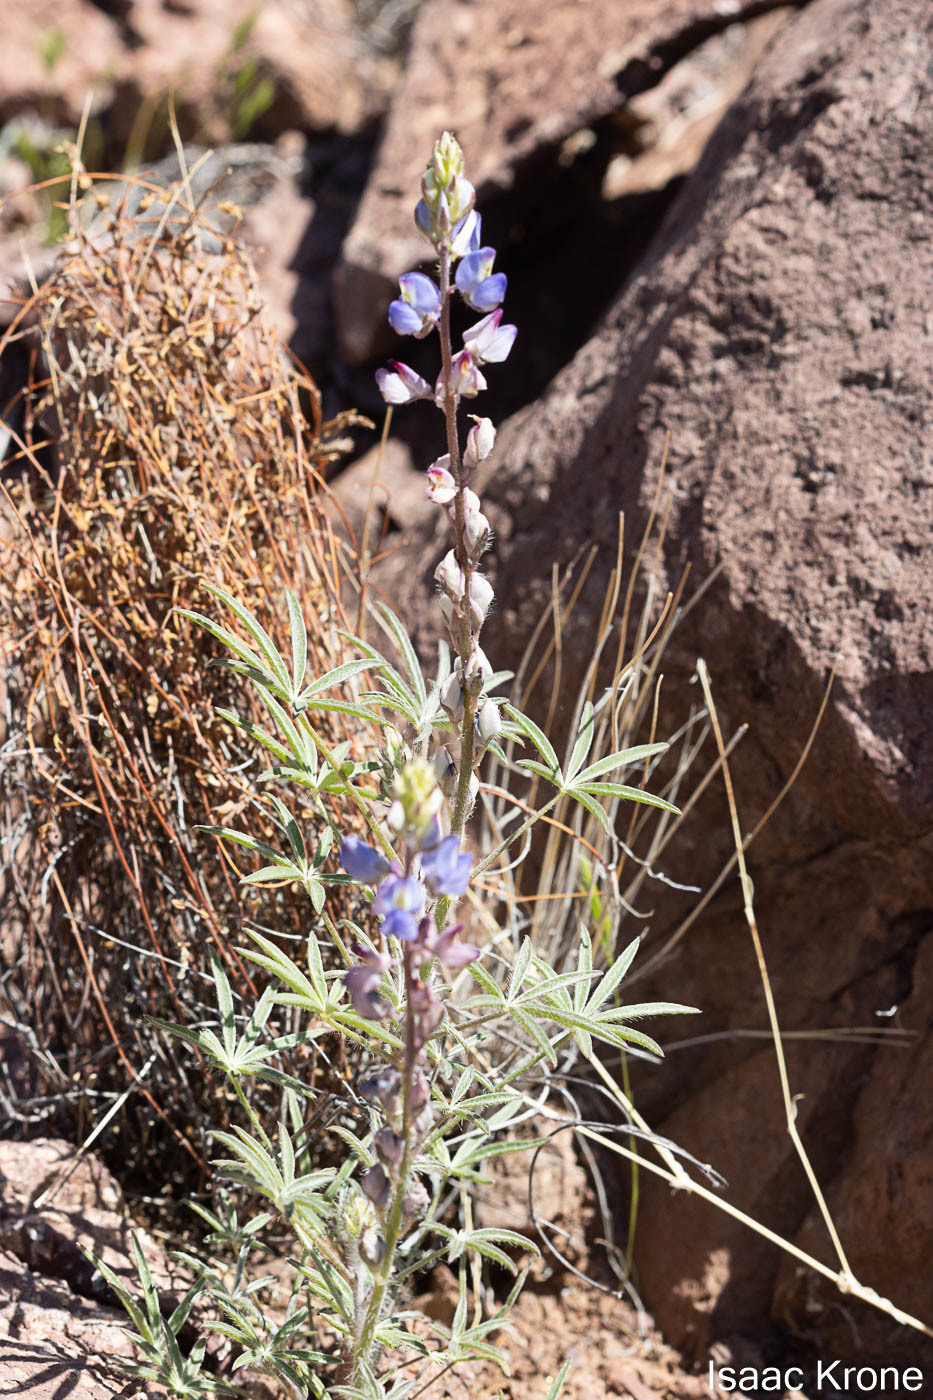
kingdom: Plantae
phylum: Tracheophyta
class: Magnoliopsida
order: Fabales
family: Fabaceae
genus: Lupinus
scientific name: Lupinus sparsiflorus
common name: Coulter's lupine
